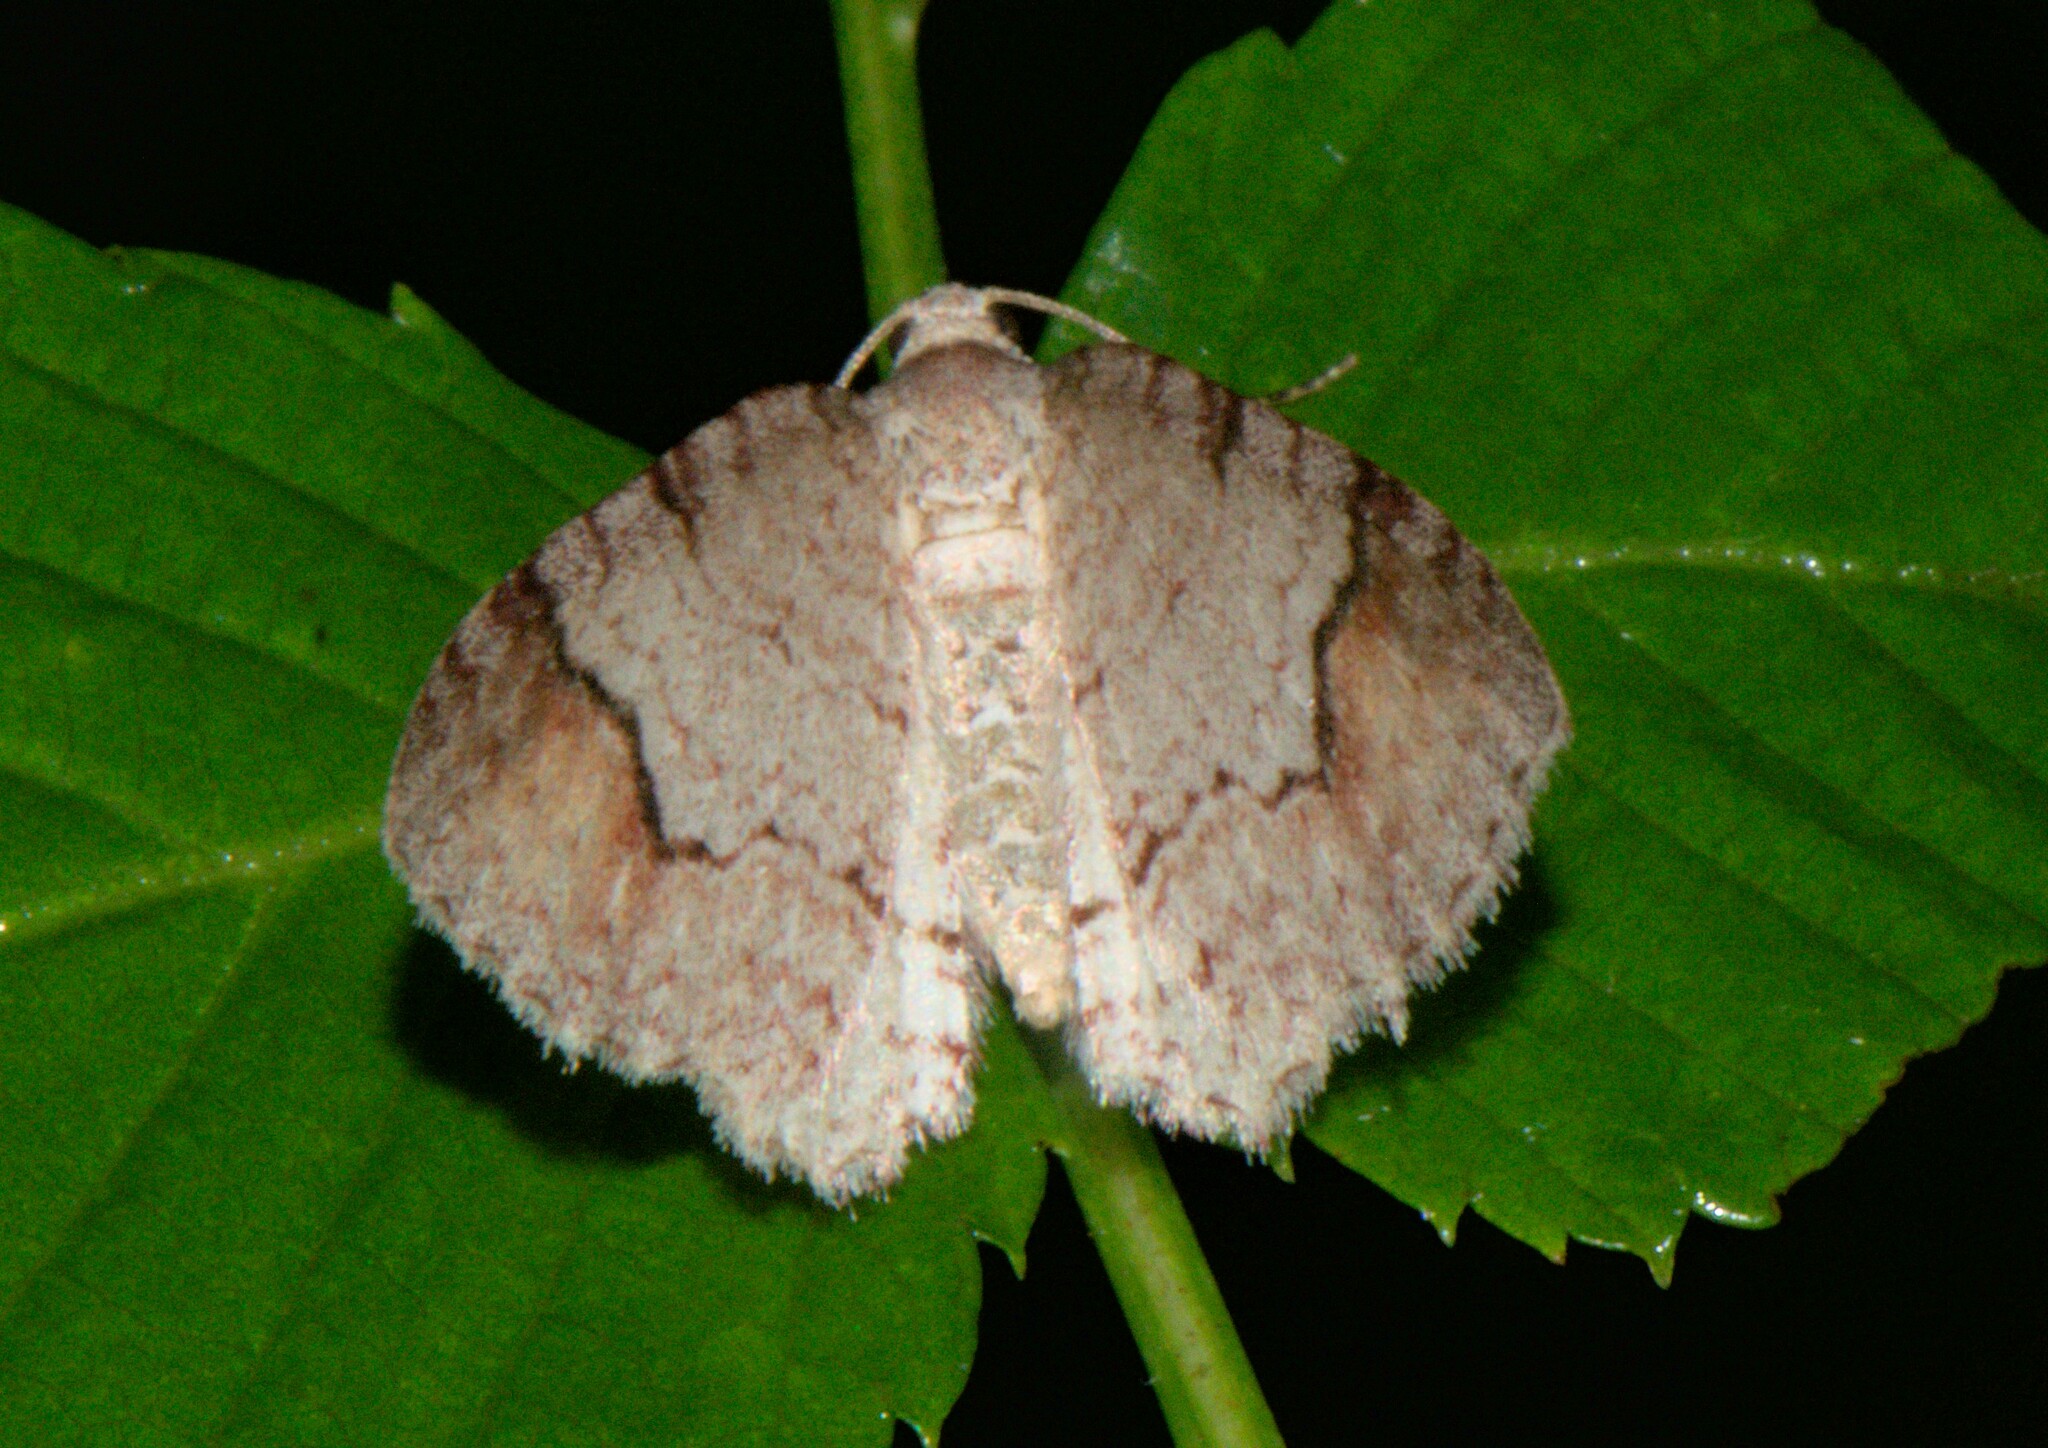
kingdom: Animalia
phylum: Arthropoda
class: Insecta
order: Lepidoptera
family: Geometridae
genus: Venusia
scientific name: Venusia crassisigna
